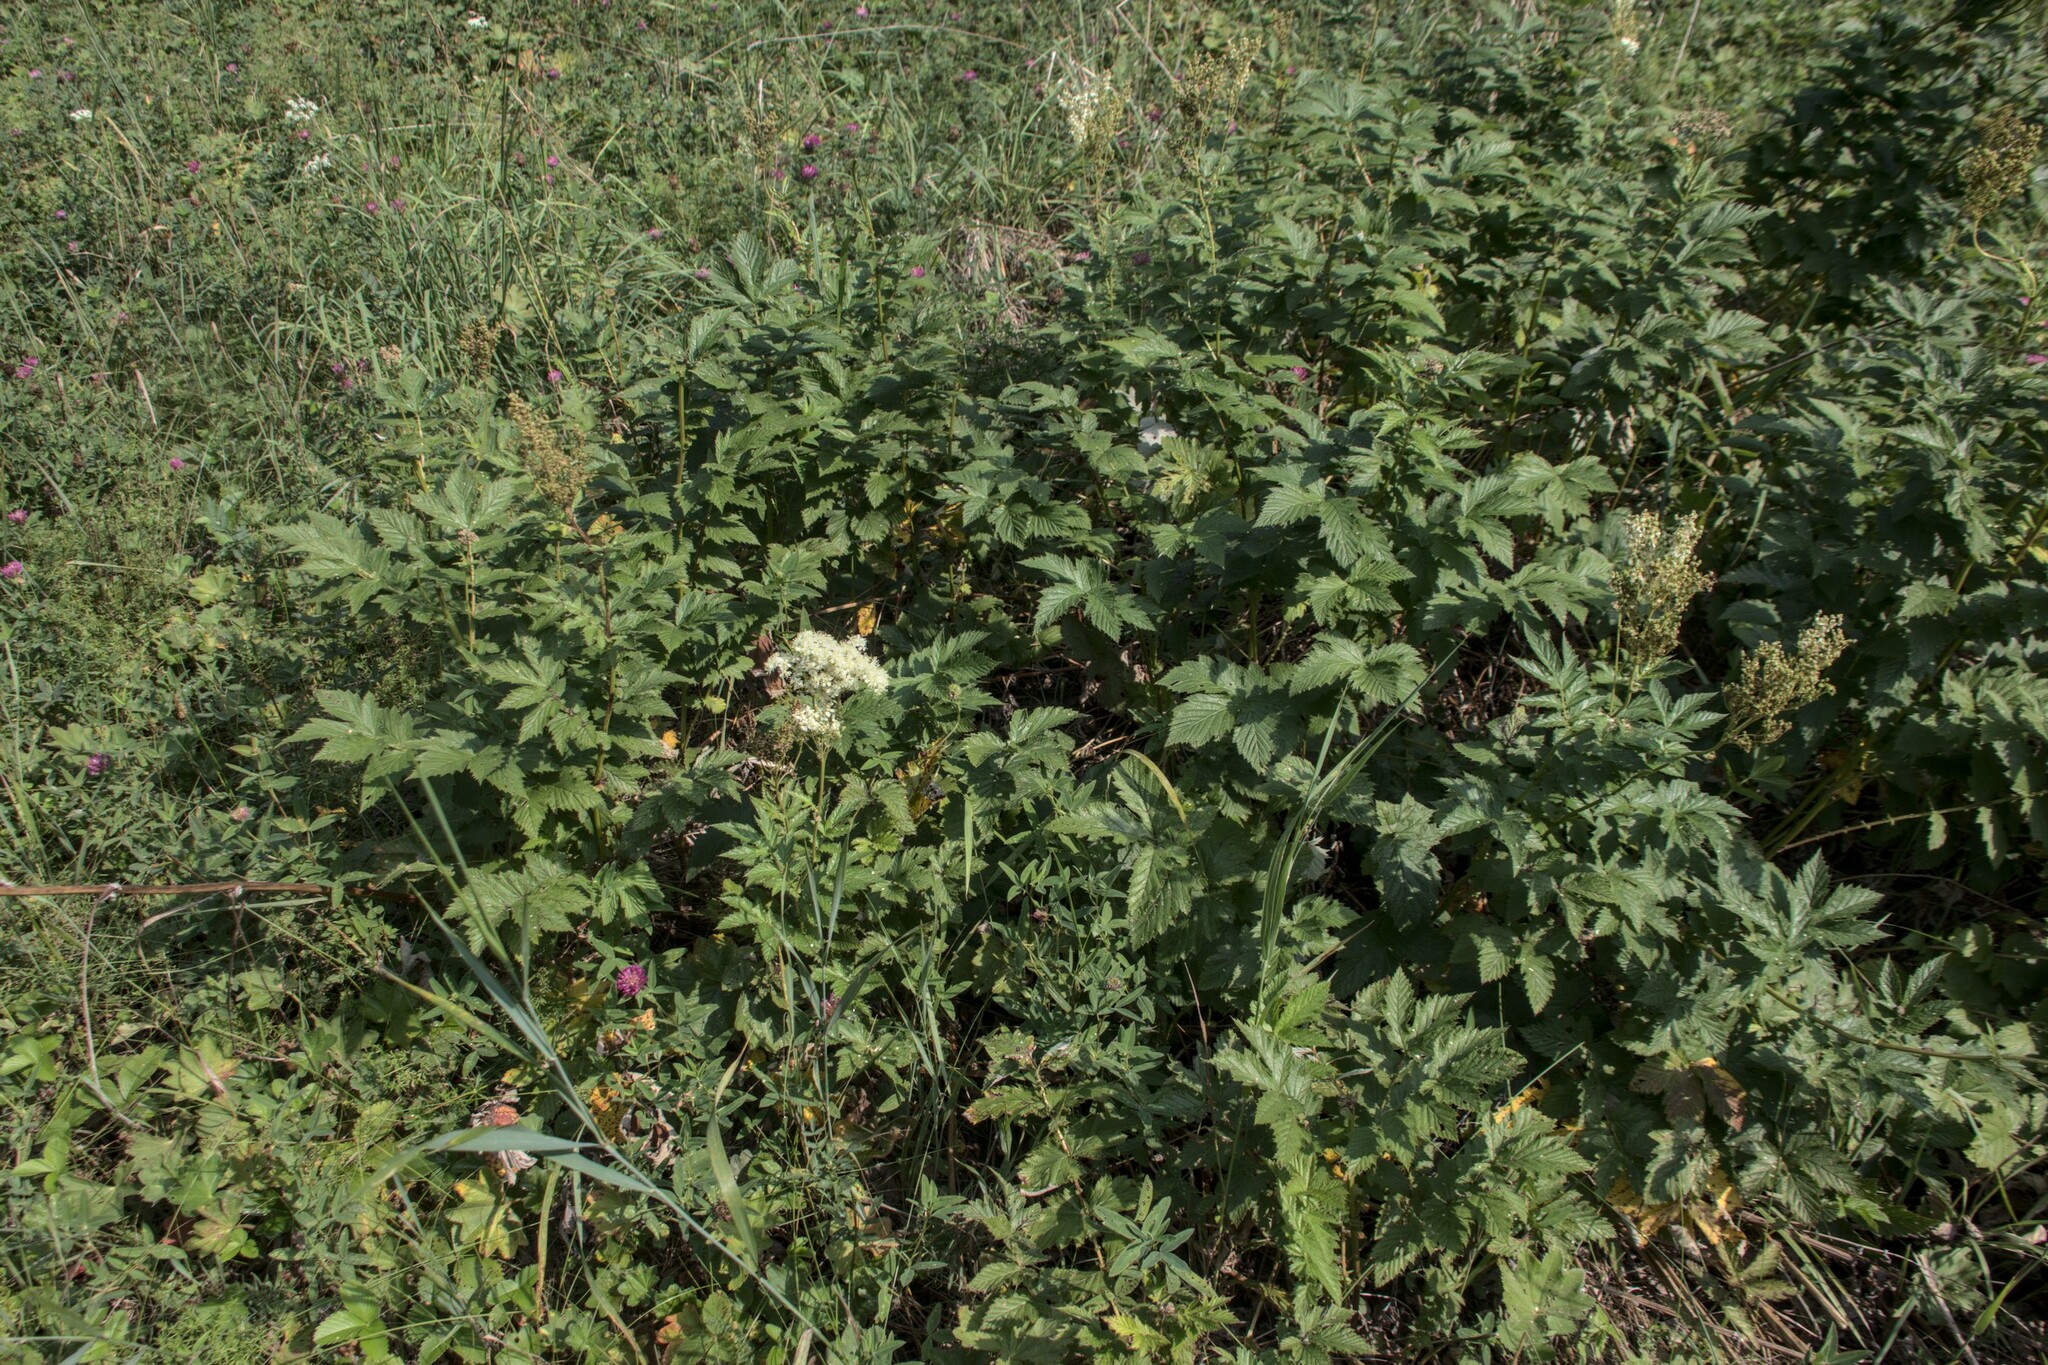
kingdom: Plantae
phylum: Tracheophyta
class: Magnoliopsida
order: Rosales
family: Rosaceae
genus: Filipendula
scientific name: Filipendula ulmaria
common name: Meadowsweet
